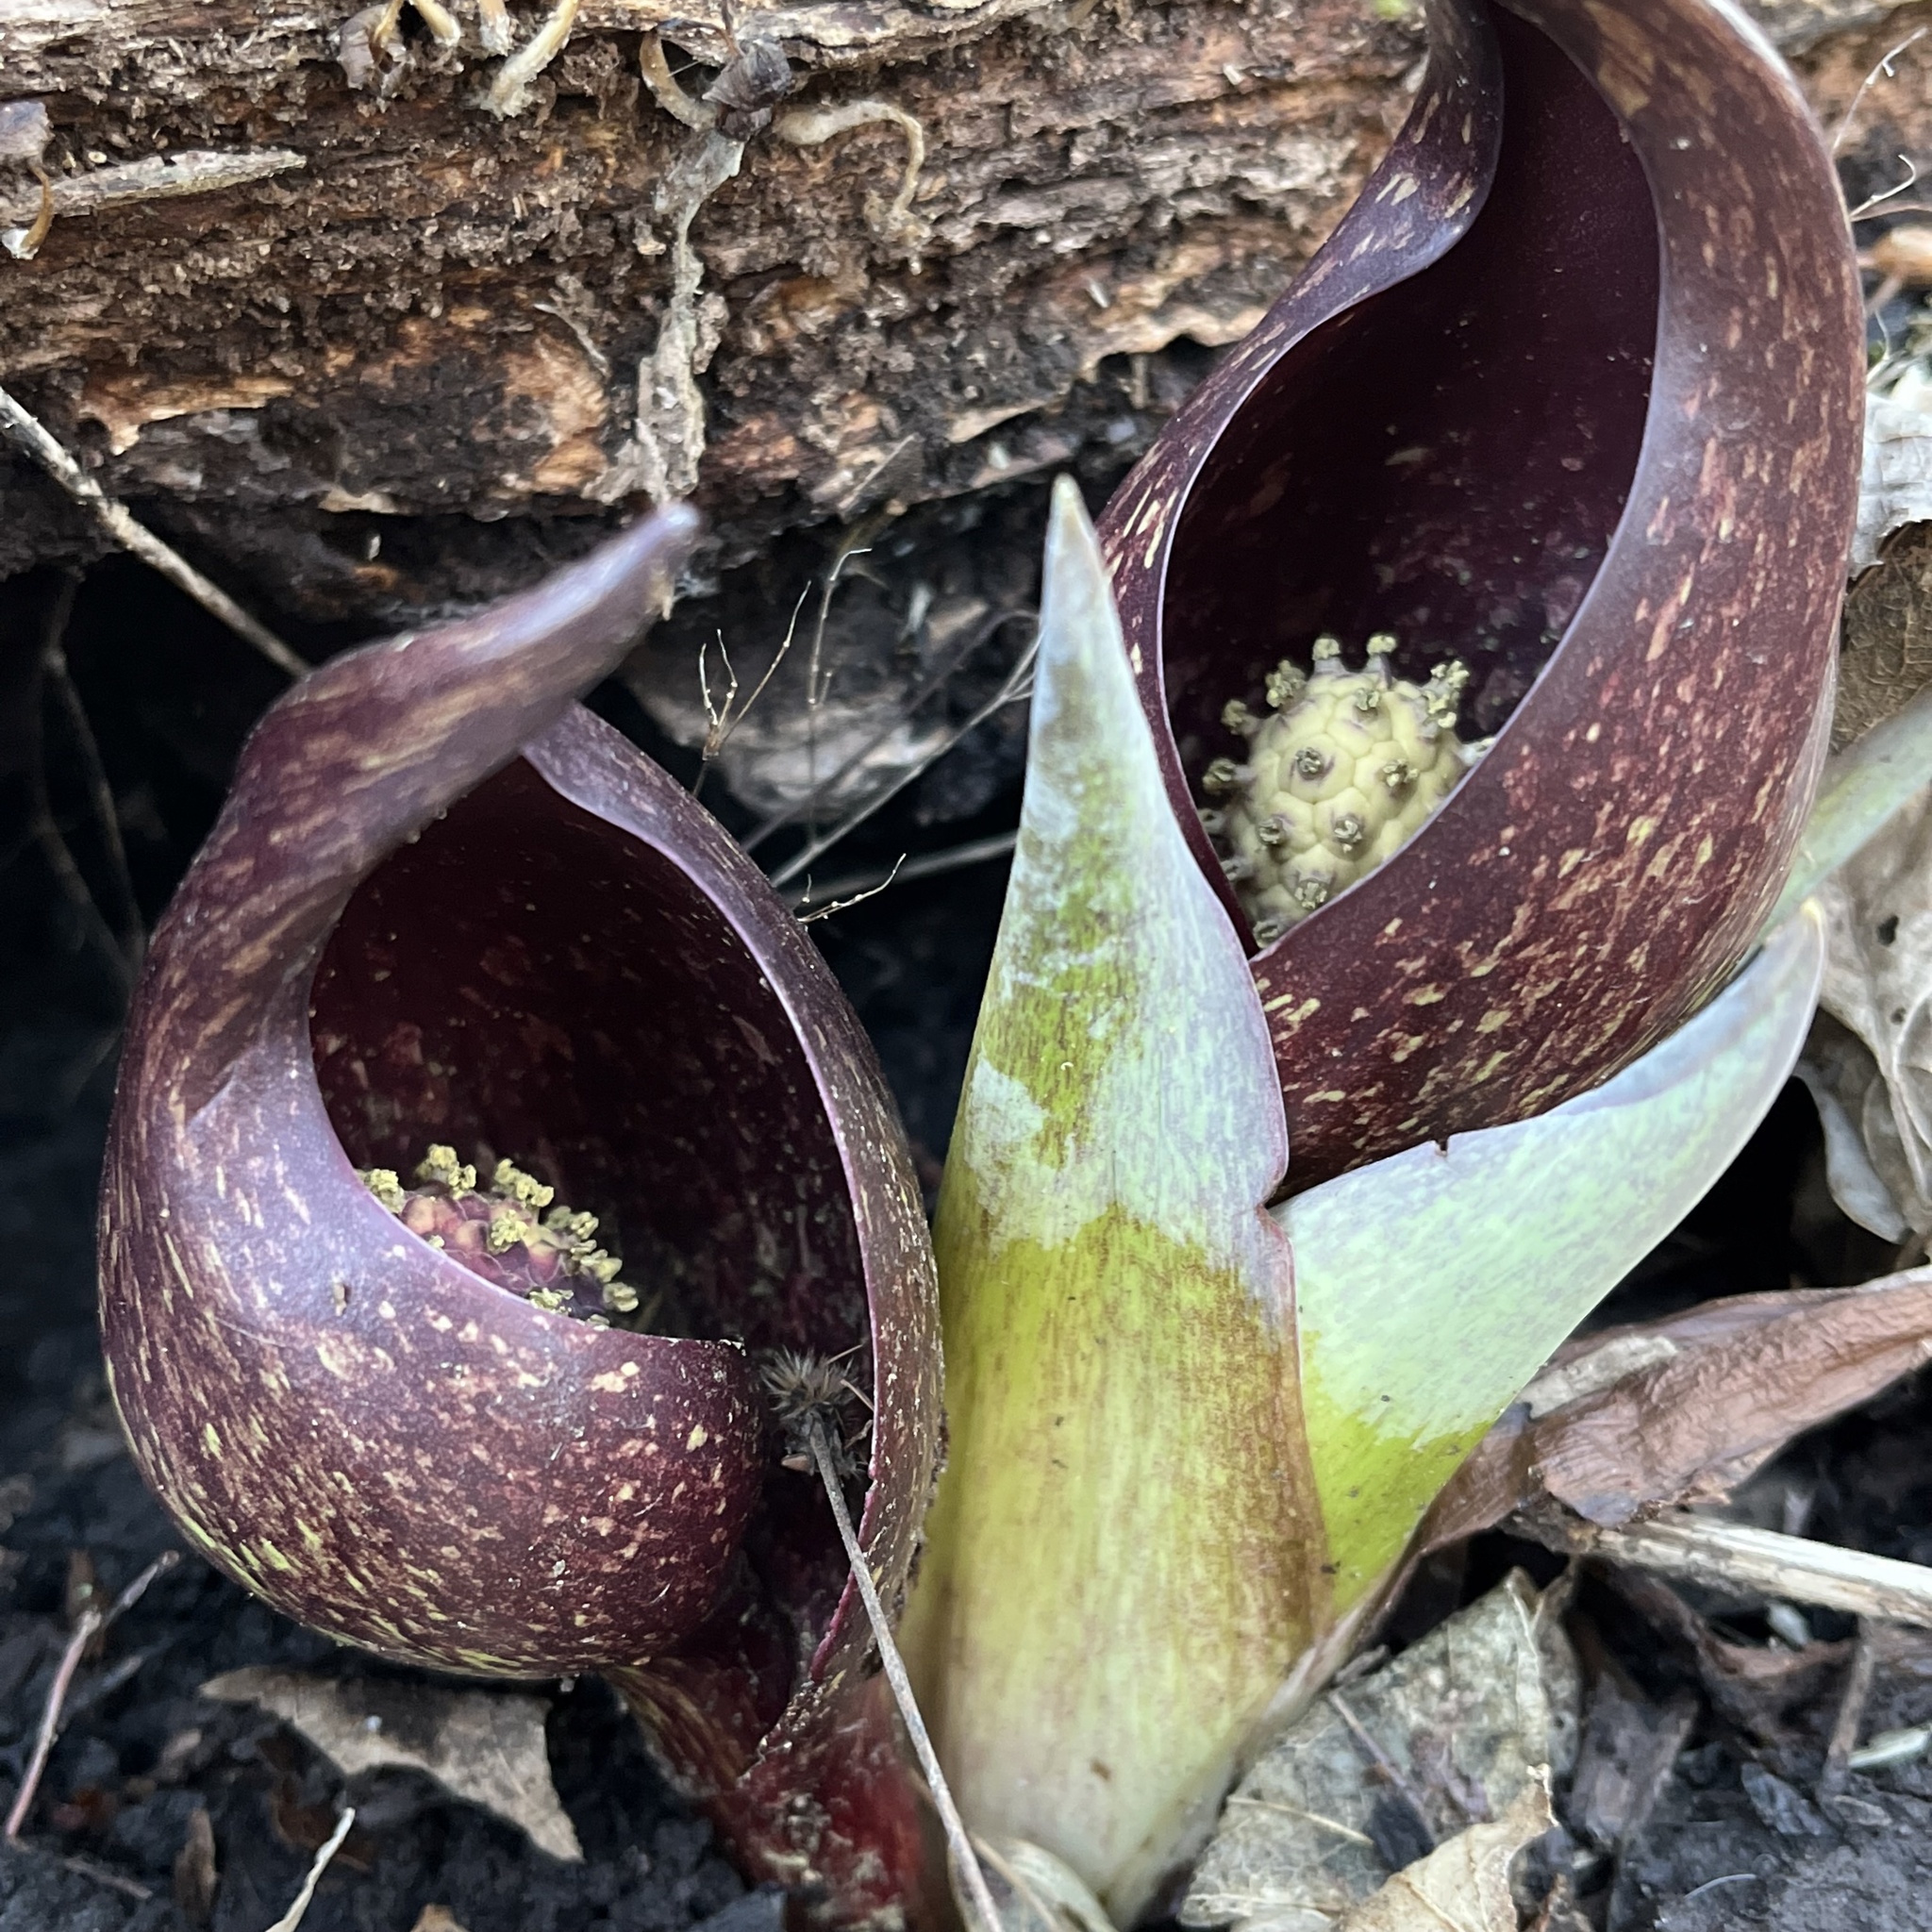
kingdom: Plantae
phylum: Tracheophyta
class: Liliopsida
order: Alismatales
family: Araceae
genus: Symplocarpus
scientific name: Symplocarpus foetidus
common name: Eastern skunk cabbage
